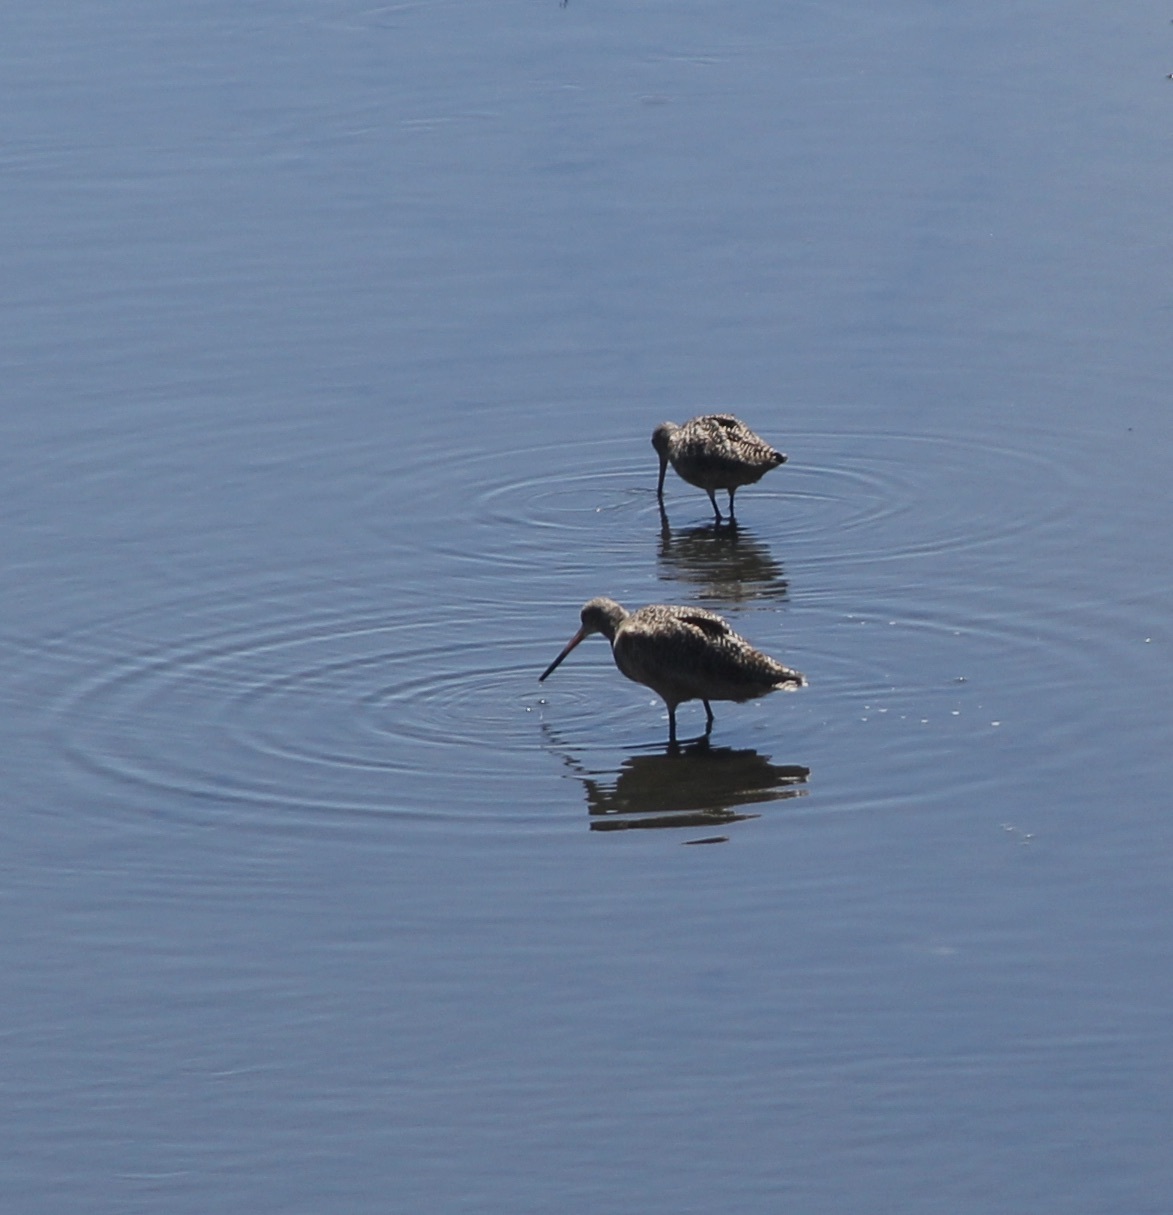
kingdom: Animalia
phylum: Chordata
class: Aves
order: Charadriiformes
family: Scolopacidae
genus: Limosa
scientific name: Limosa fedoa
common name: Marbled godwit
